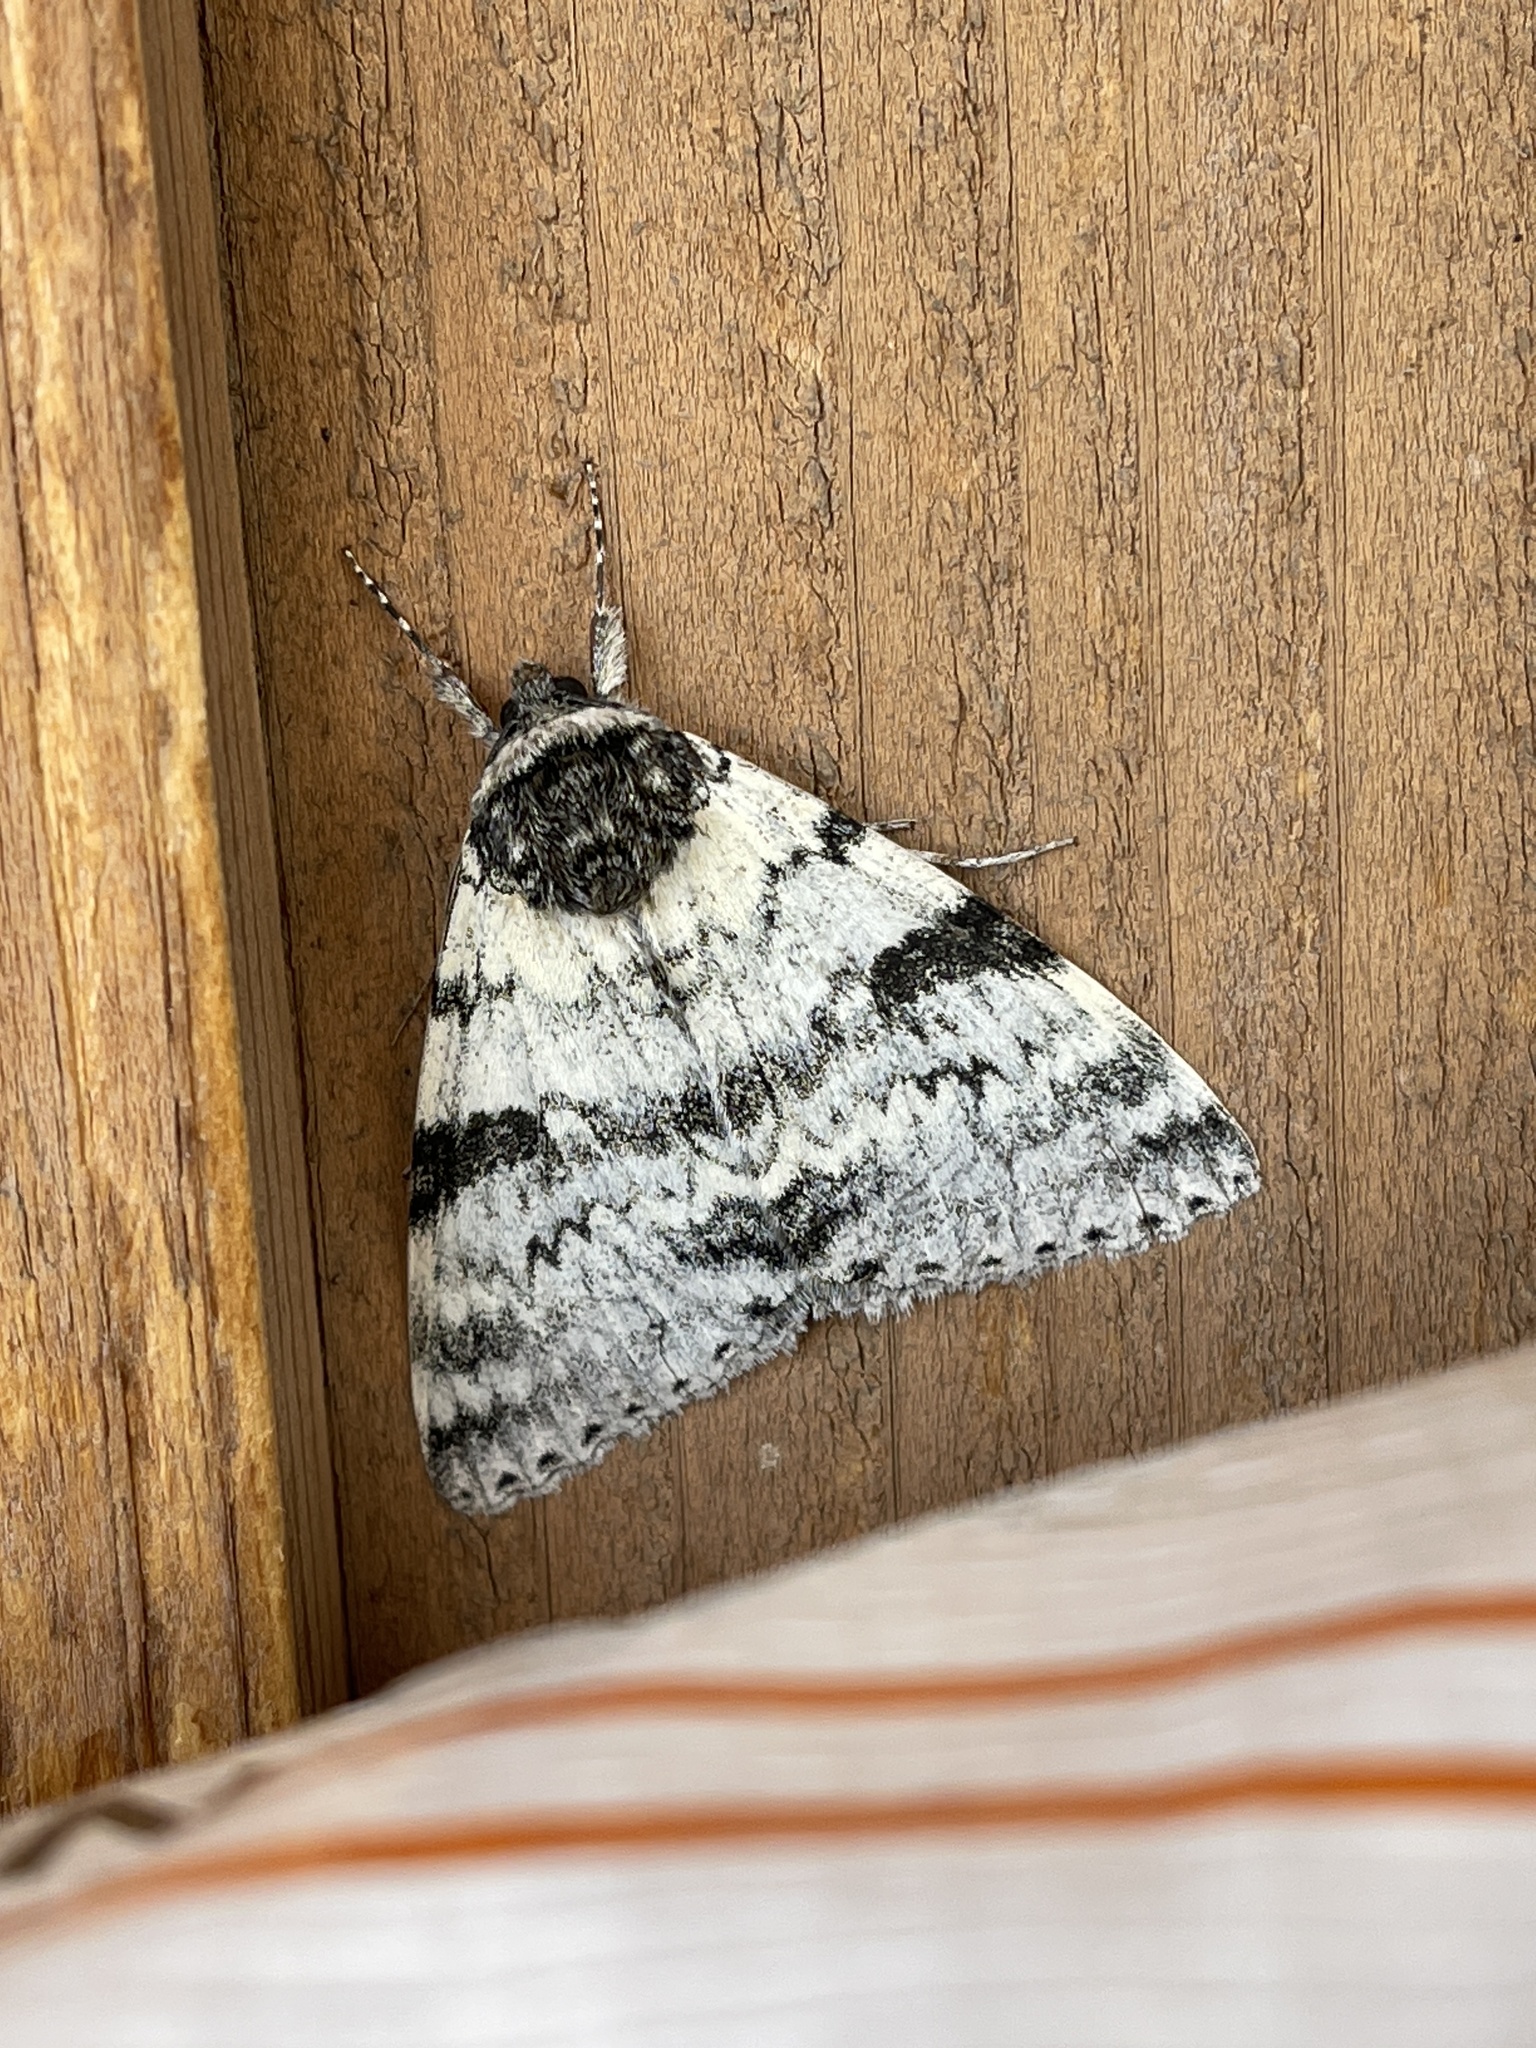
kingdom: Animalia
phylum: Arthropoda
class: Insecta
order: Lepidoptera
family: Erebidae
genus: Catocala
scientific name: Catocala relicta
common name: White underwing
